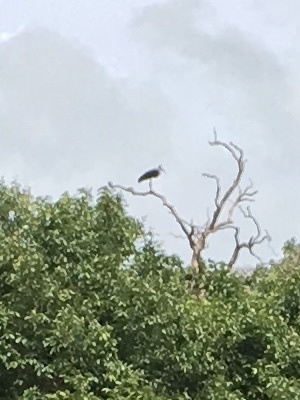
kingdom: Animalia
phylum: Chordata
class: Aves
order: Ciconiiformes
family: Ciconiidae
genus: Leptoptilos
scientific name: Leptoptilos javanicus
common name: Lesser adjutant
